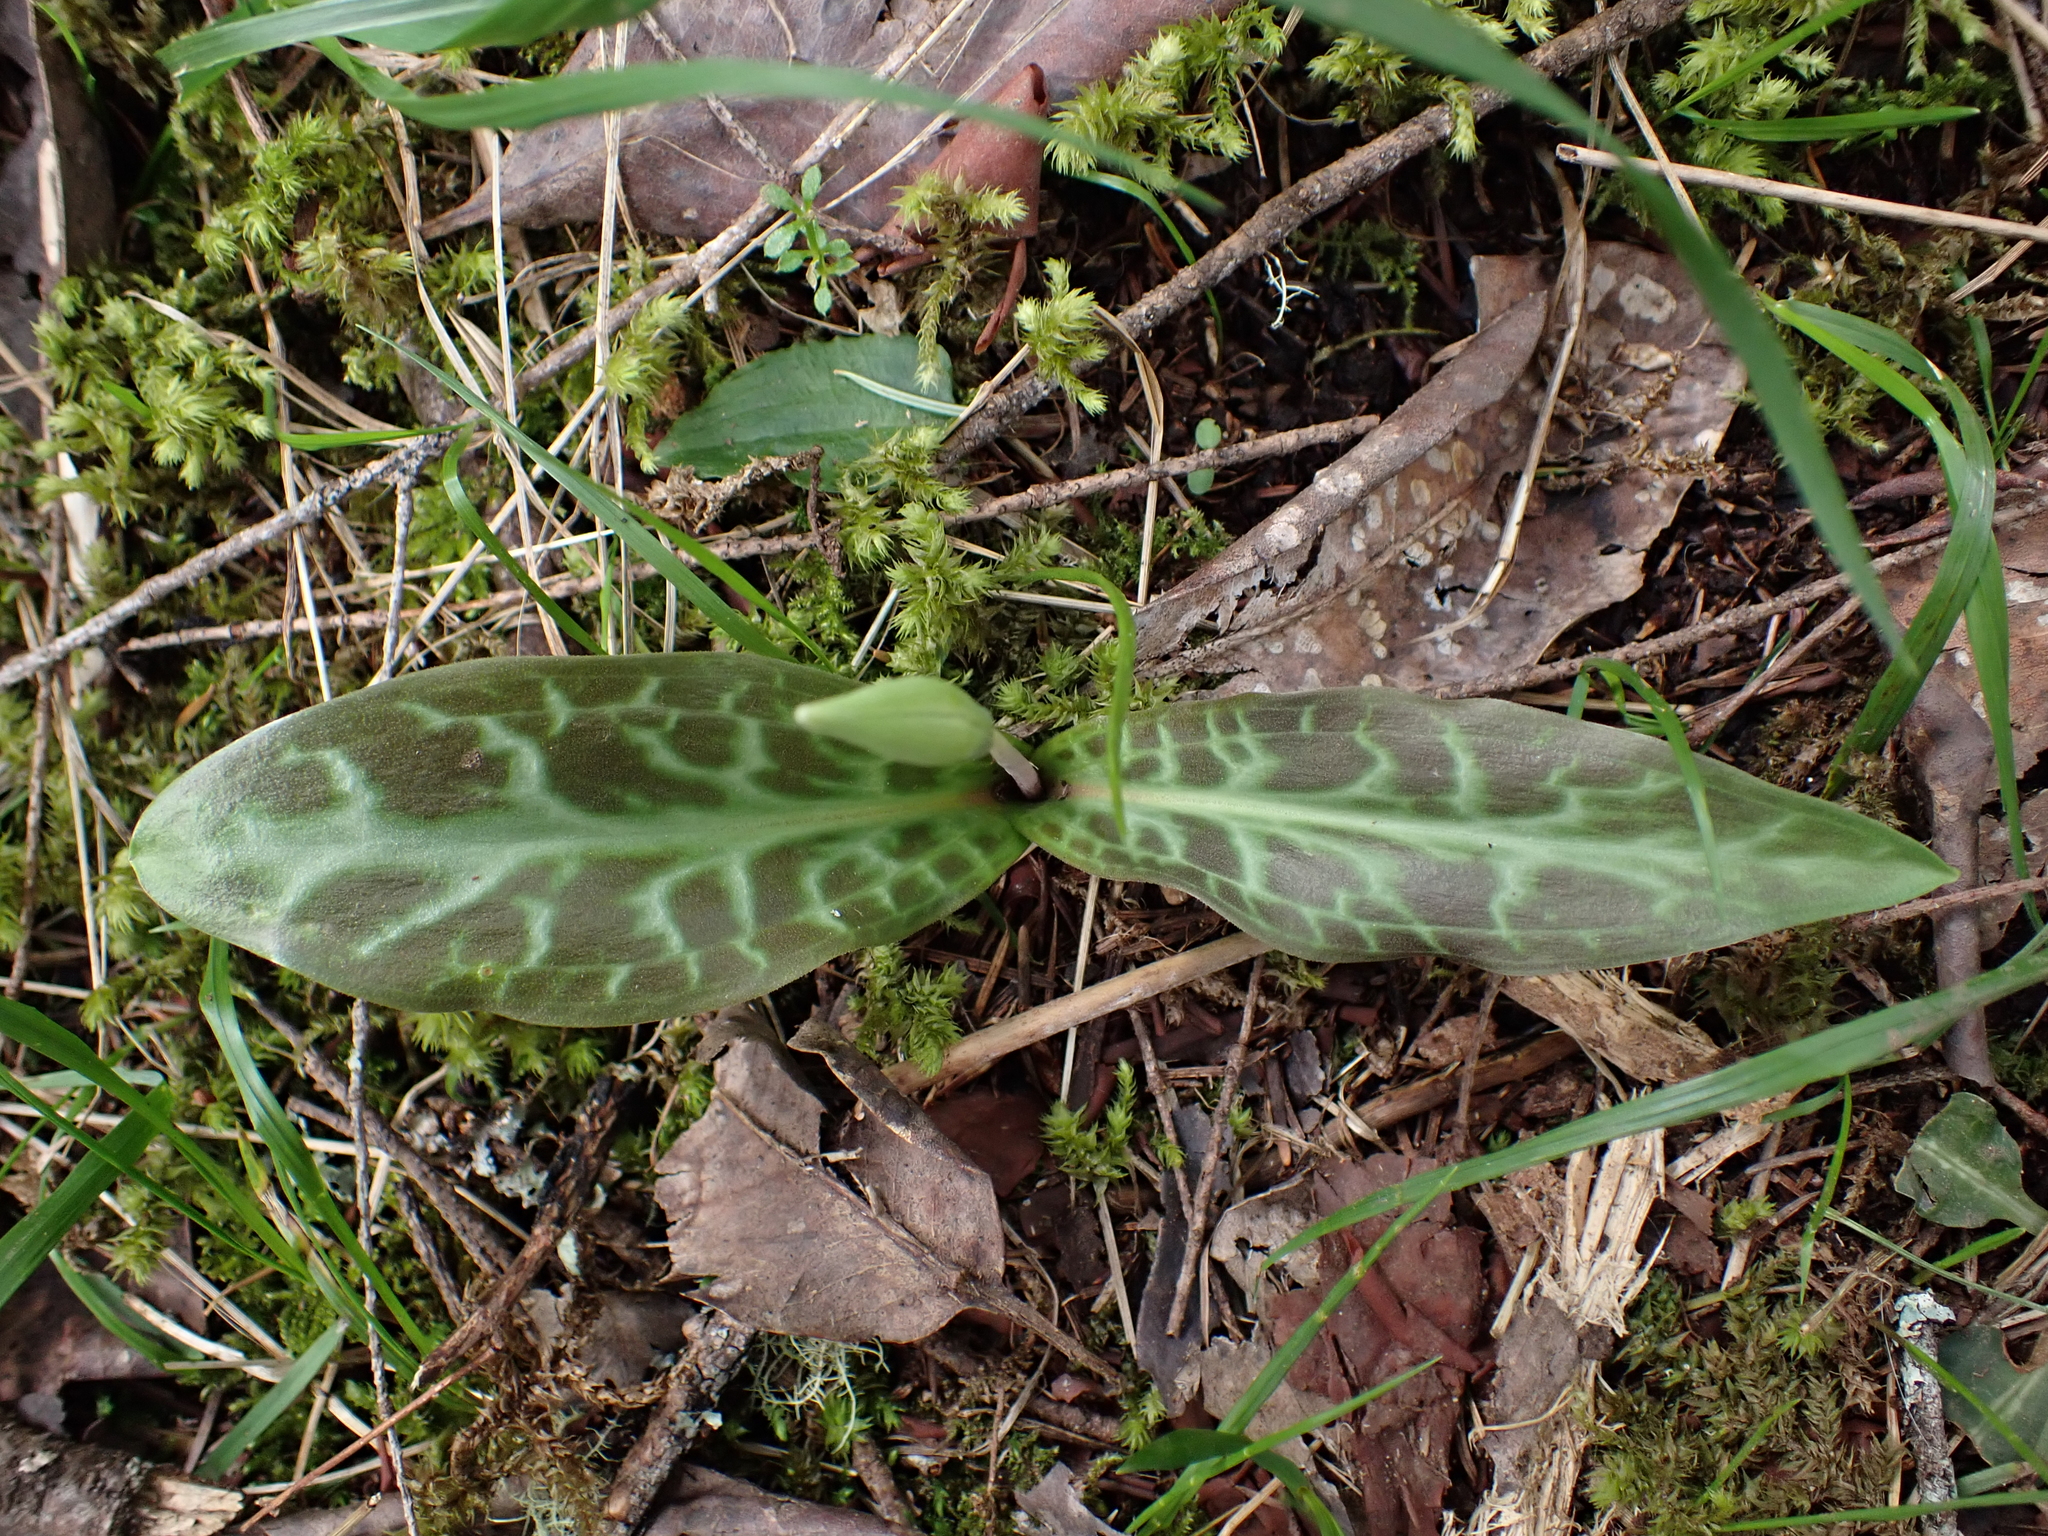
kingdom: Plantae
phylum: Tracheophyta
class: Liliopsida
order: Liliales
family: Liliaceae
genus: Erythronium
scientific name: Erythronium oregonum
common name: Giant adder's-tongue
